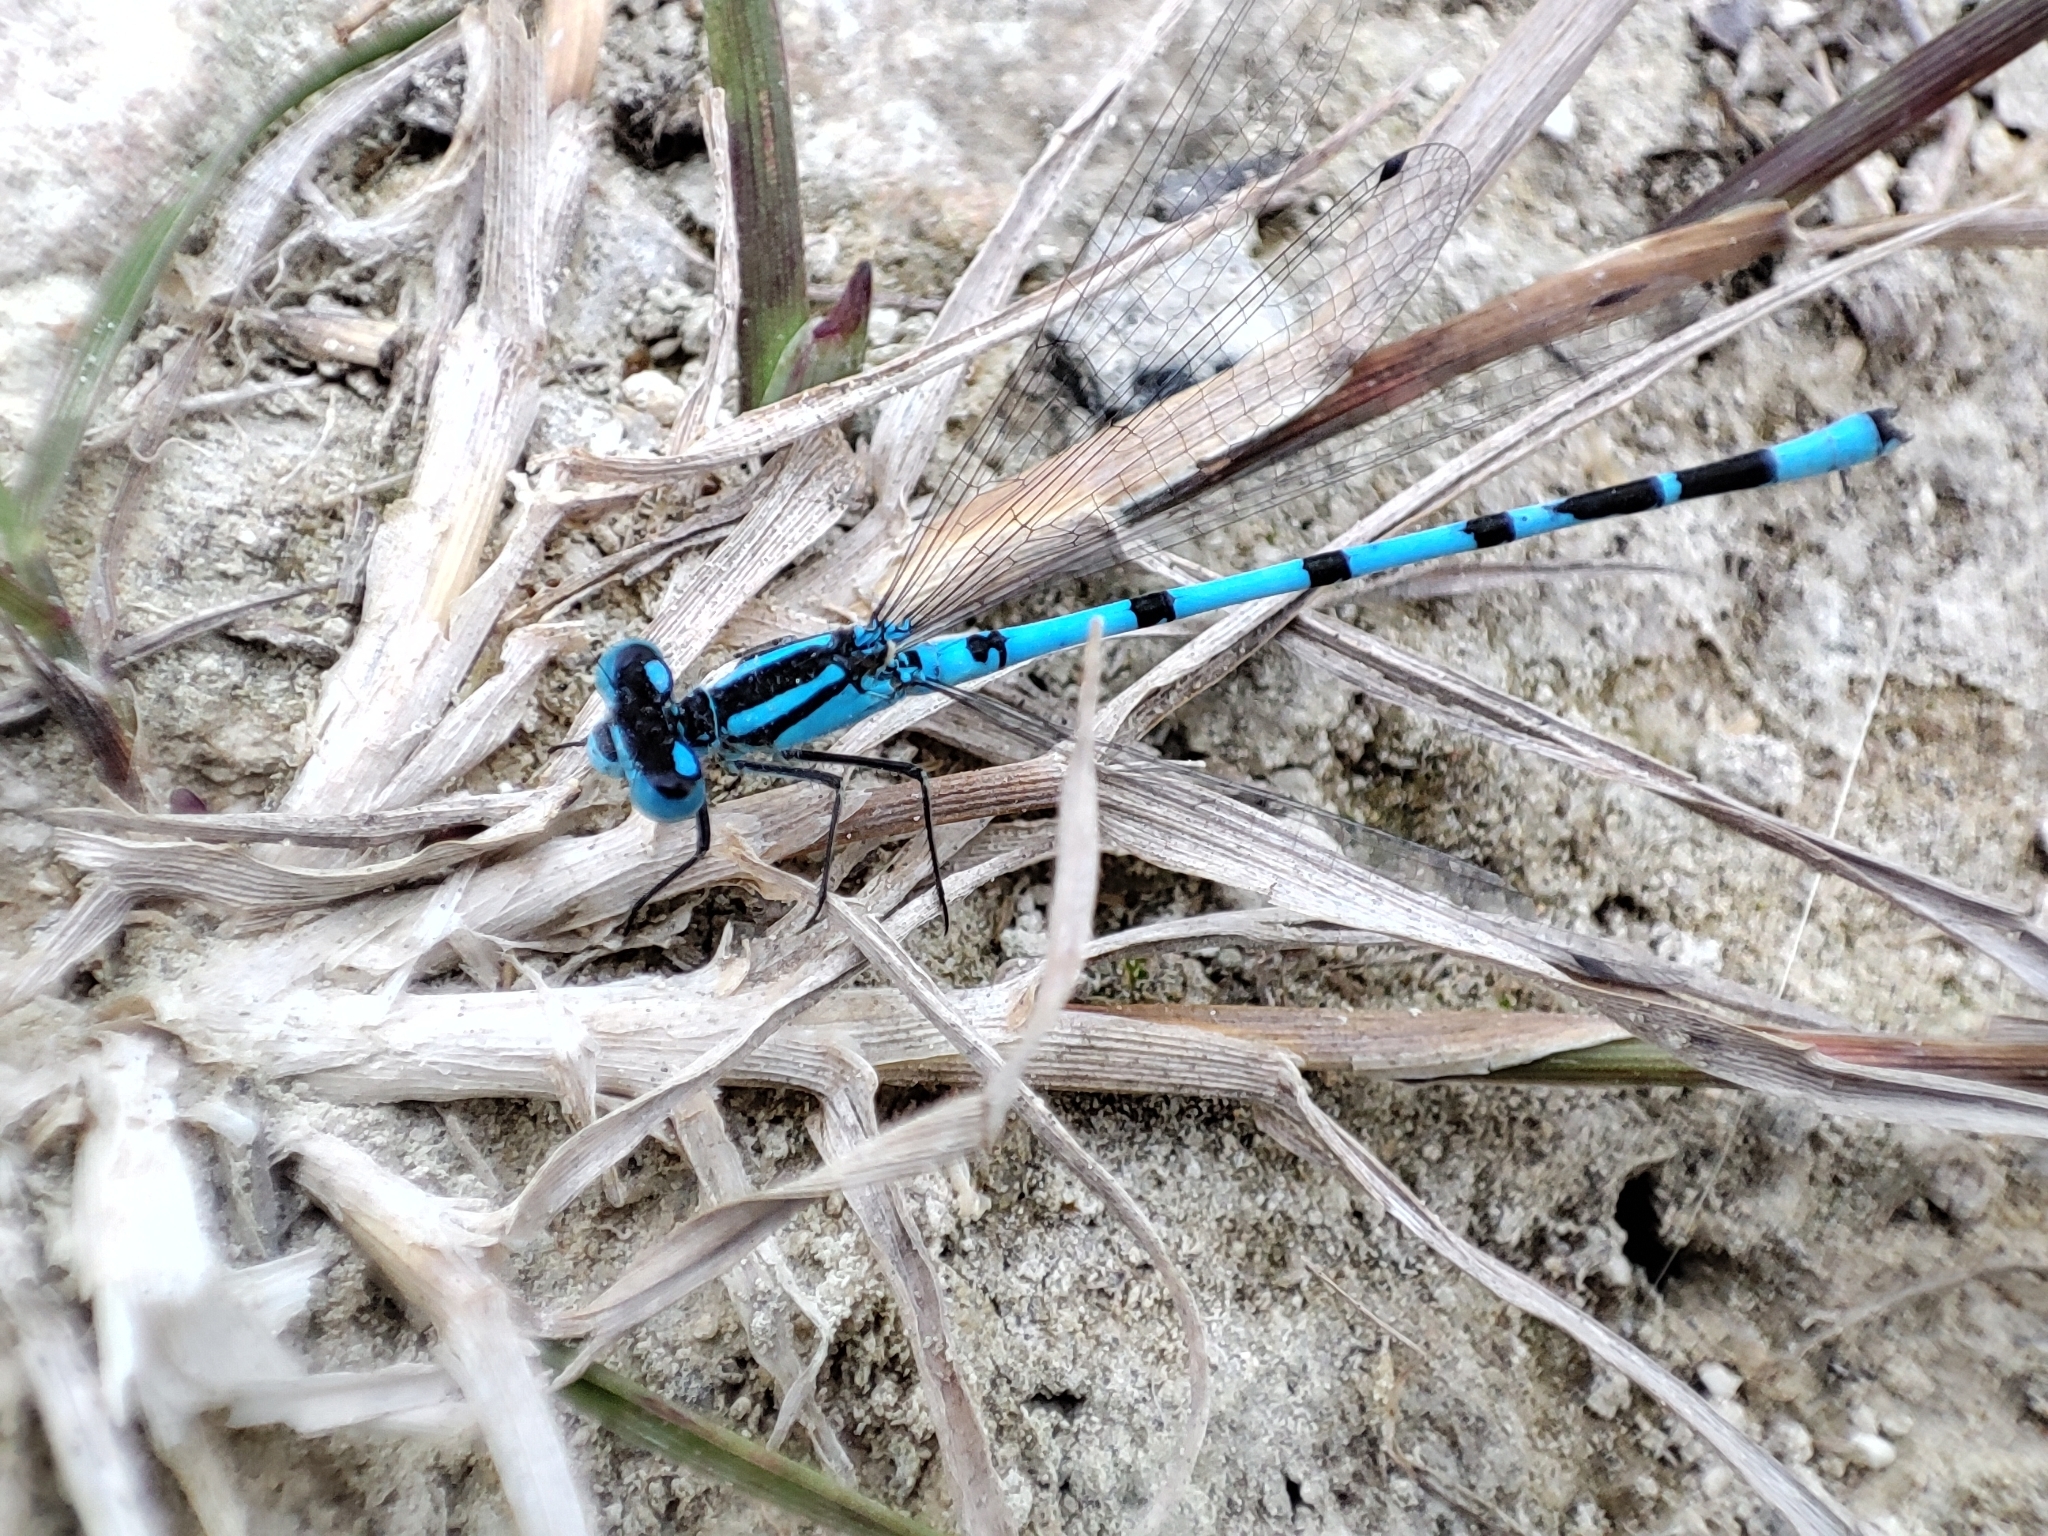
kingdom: Animalia
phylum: Arthropoda
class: Insecta
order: Odonata
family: Coenagrionidae
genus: Enallagma
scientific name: Enallagma cyathigerum
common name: Common blue damselfly
